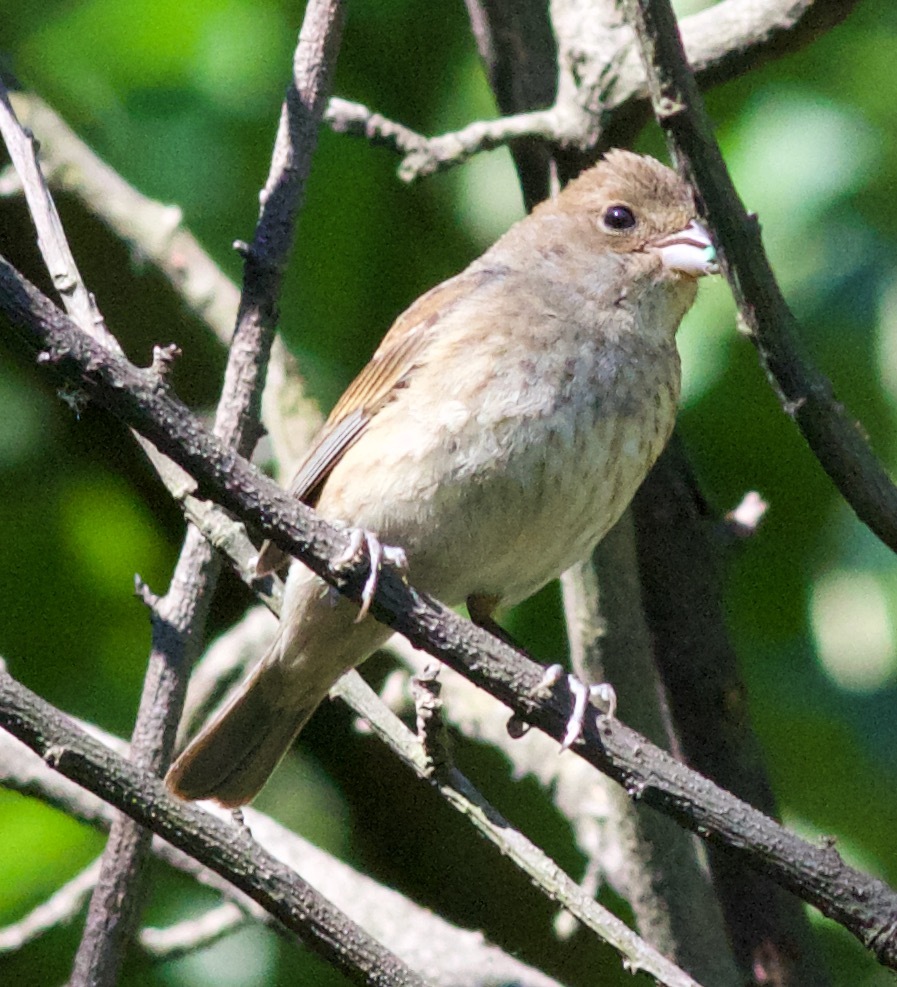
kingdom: Animalia
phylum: Chordata
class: Aves
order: Passeriformes
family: Cardinalidae
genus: Passerina
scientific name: Passerina cyanea
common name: Indigo bunting
